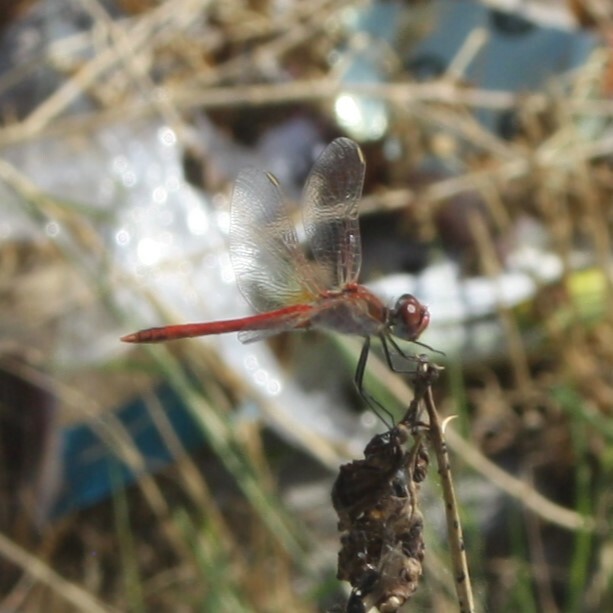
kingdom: Animalia
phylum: Arthropoda
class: Insecta
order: Odonata
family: Libellulidae
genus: Sympetrum
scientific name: Sympetrum fonscolombii
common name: Red-veined darter
